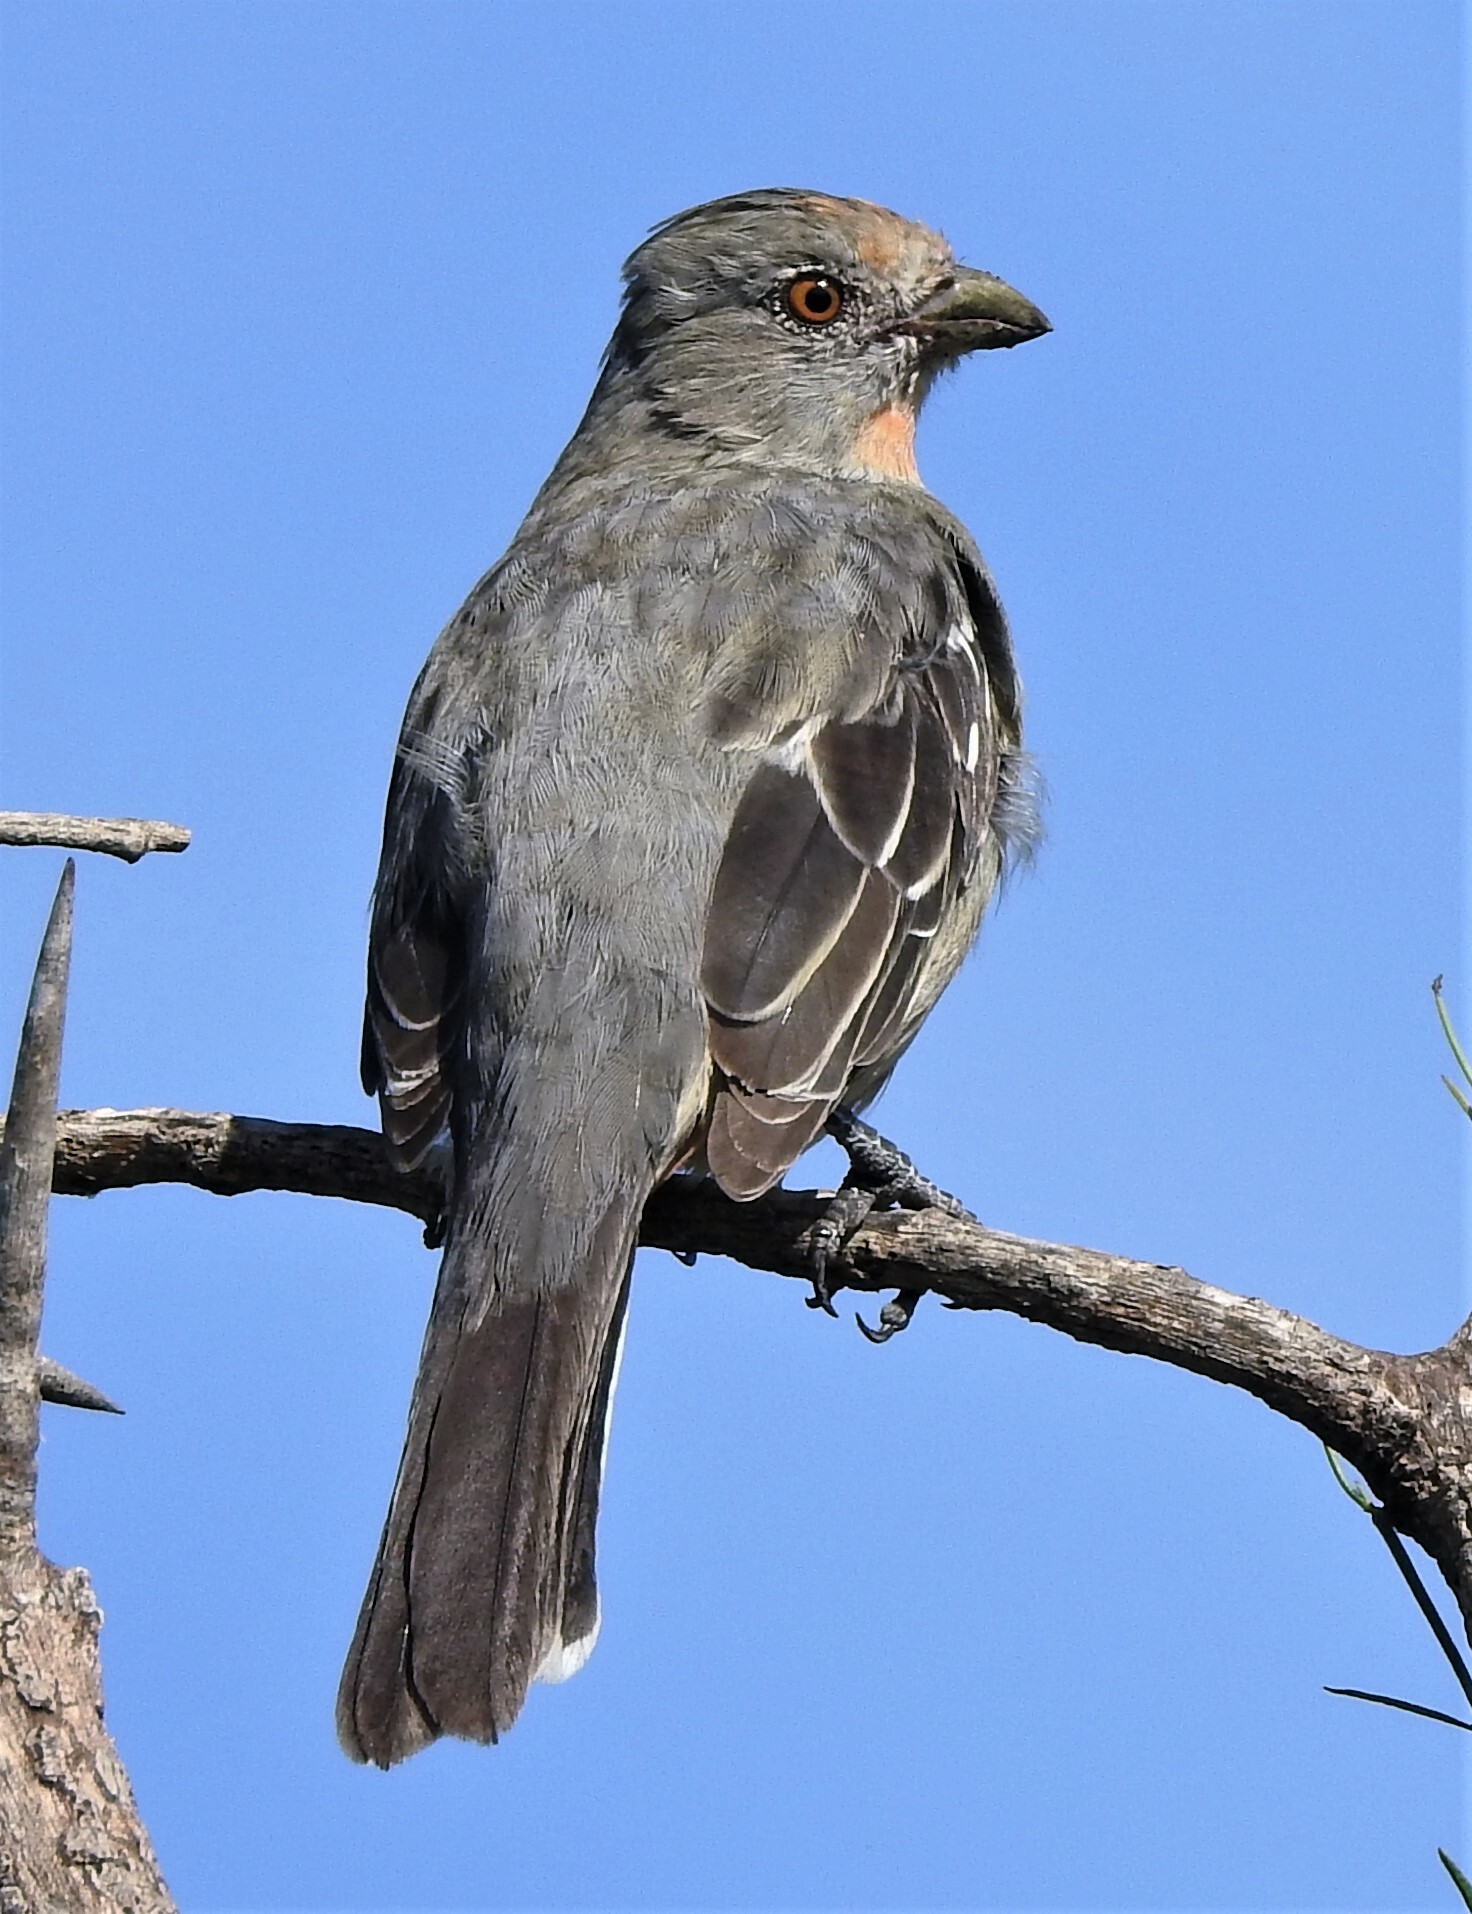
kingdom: Animalia
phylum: Chordata
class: Aves
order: Passeriformes
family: Cotingidae
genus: Phytotoma
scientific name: Phytotoma rutila
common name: White-tipped plantcutter
